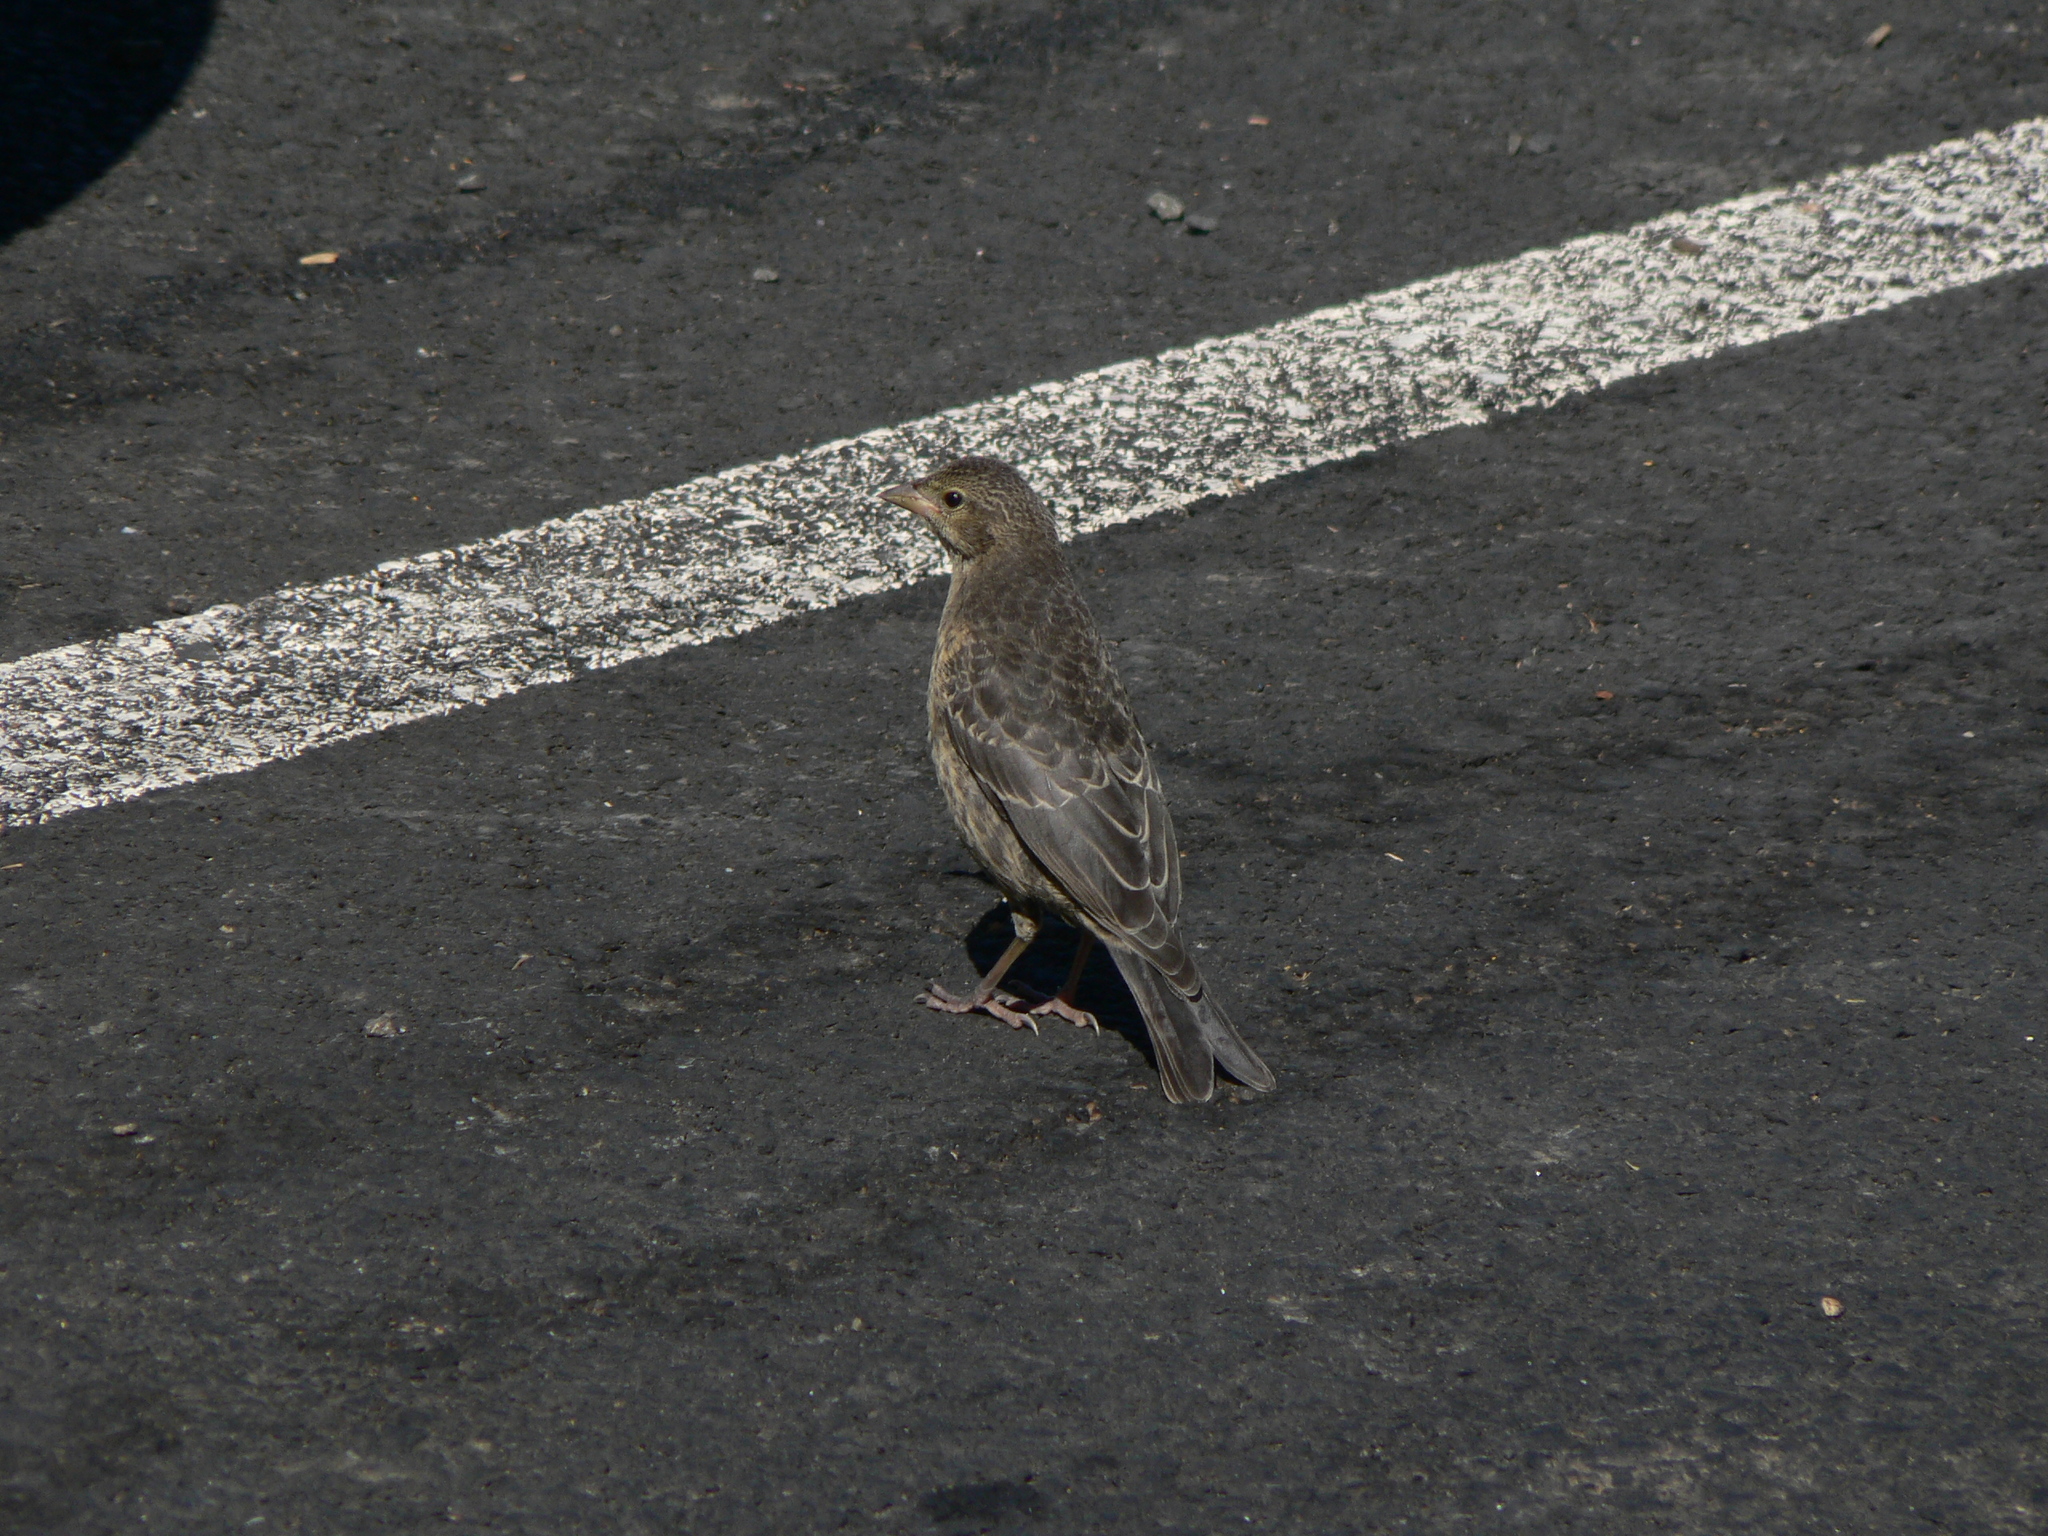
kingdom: Animalia
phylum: Chordata
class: Aves
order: Passeriformes
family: Icteridae
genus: Molothrus
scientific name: Molothrus ater
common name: Brown-headed cowbird
